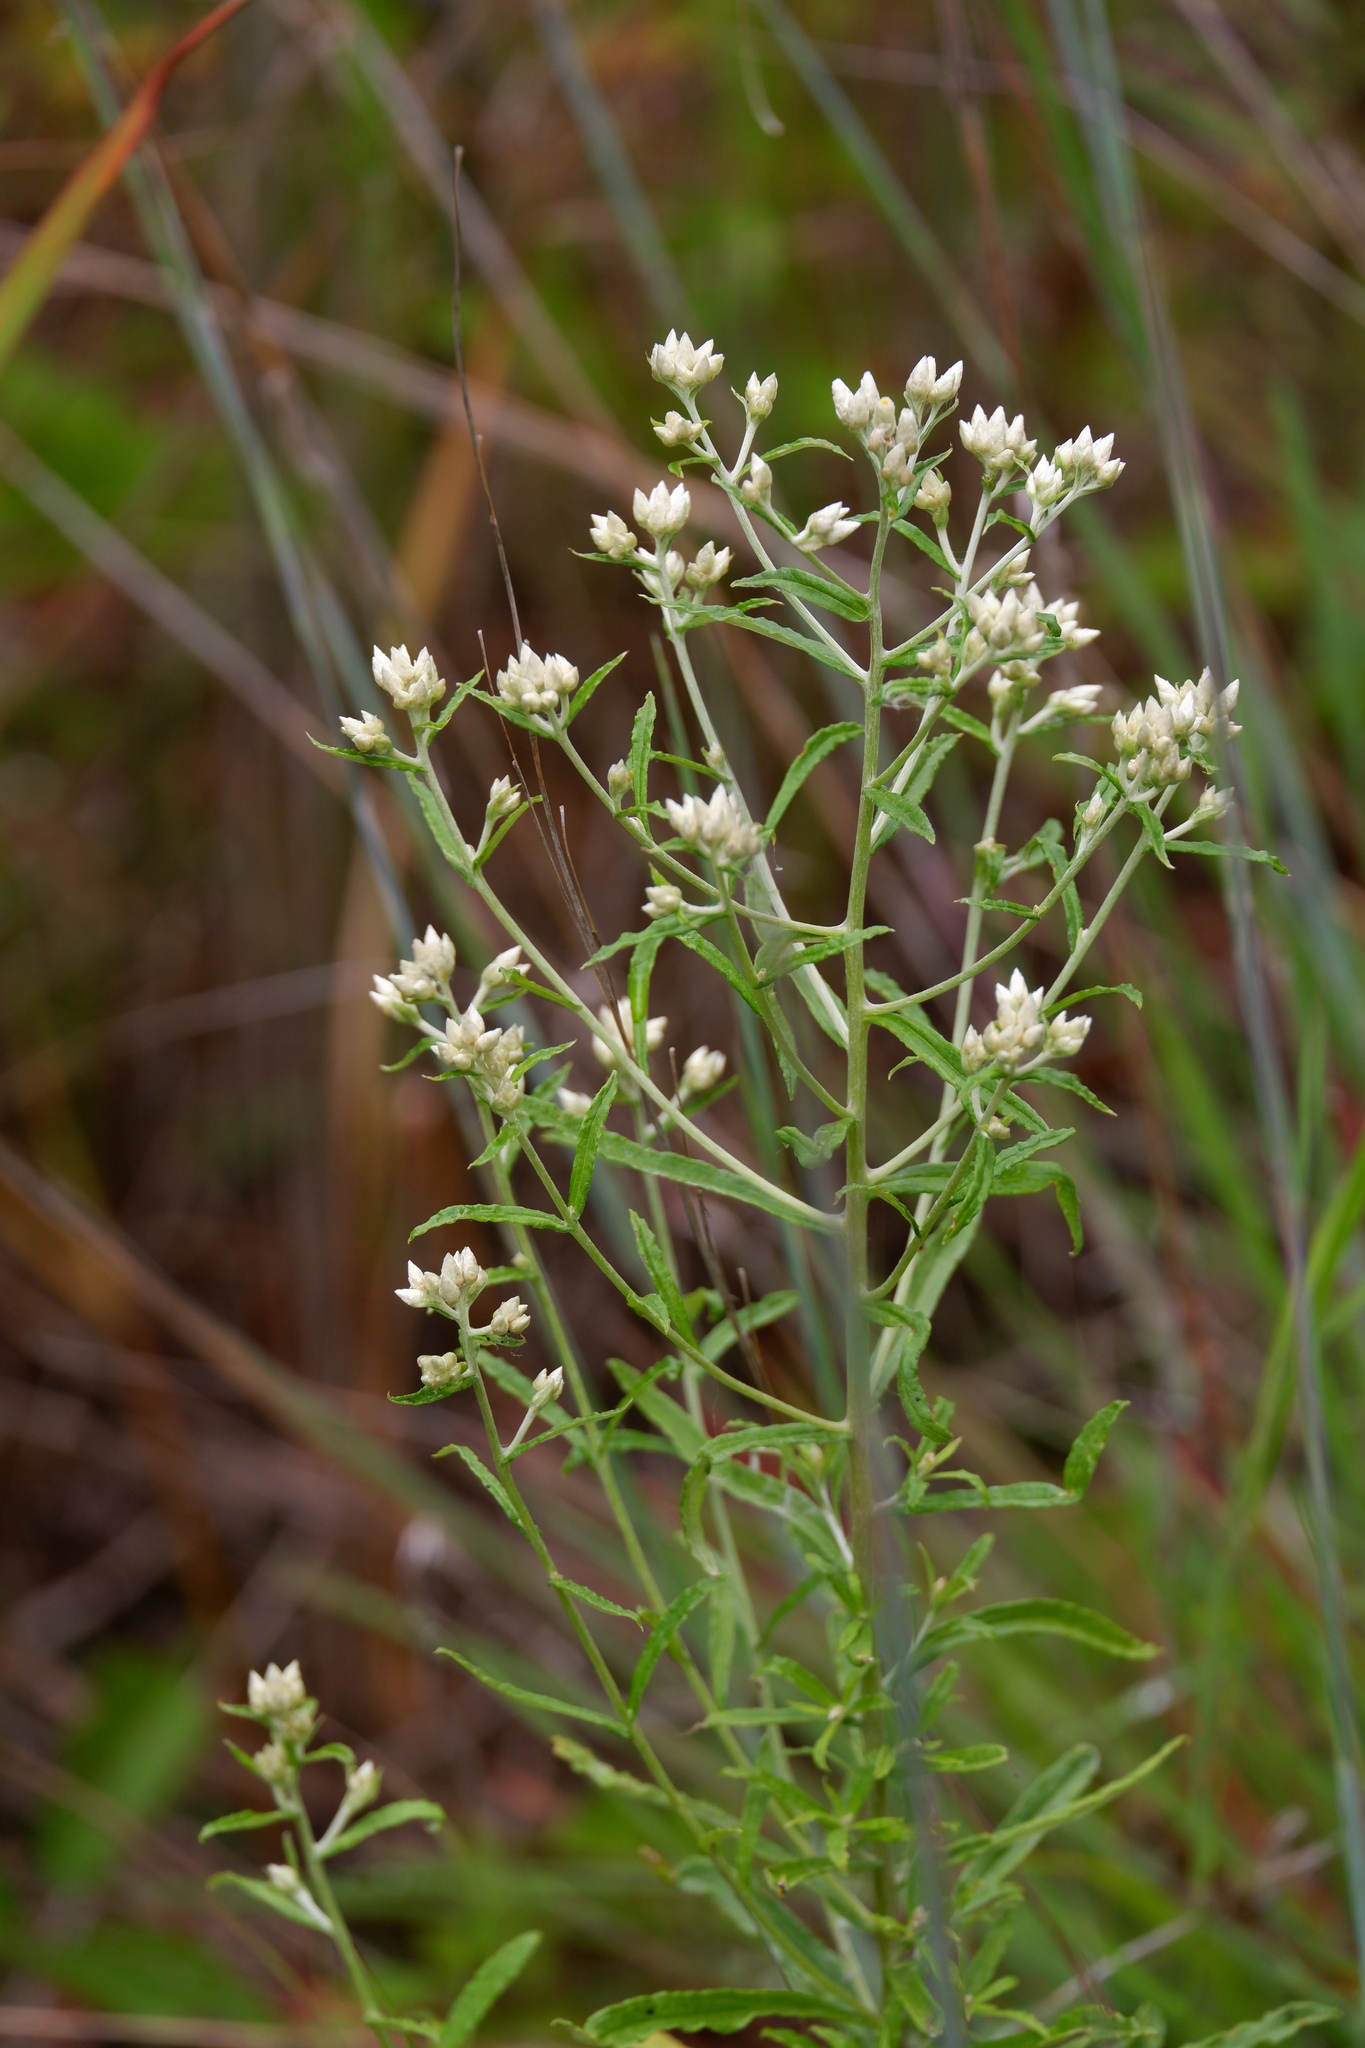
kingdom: Plantae
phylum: Tracheophyta
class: Magnoliopsida
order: Asterales
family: Asteraceae
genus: Pseudognaphalium
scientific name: Pseudognaphalium obtusifolium
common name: Eastern rabbit-tobacco
